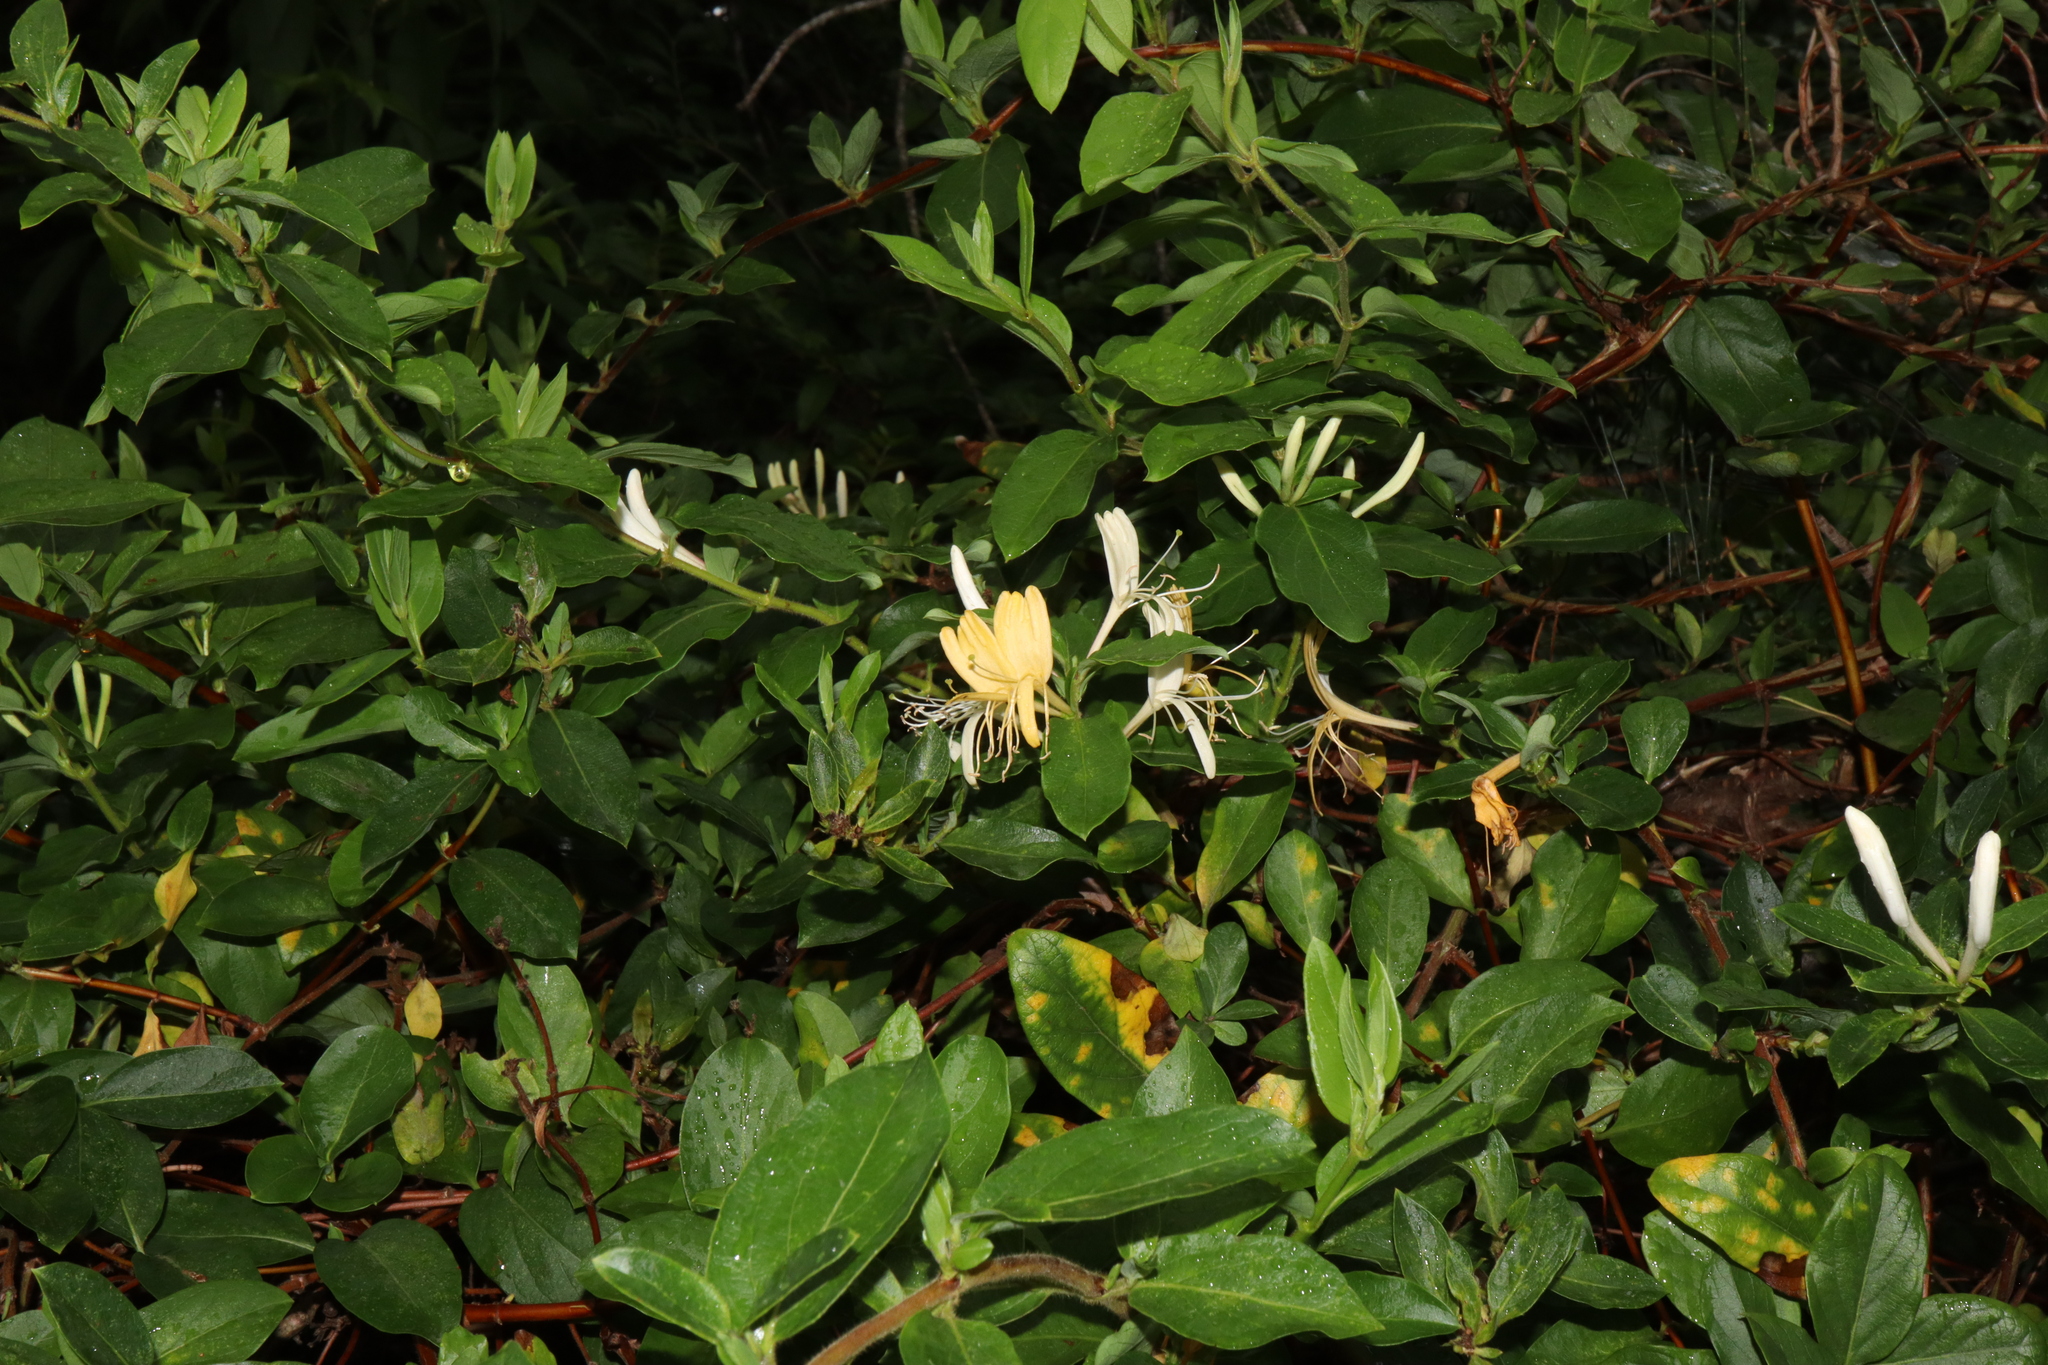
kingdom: Plantae
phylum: Tracheophyta
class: Magnoliopsida
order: Dipsacales
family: Caprifoliaceae
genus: Lonicera
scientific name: Lonicera japonica
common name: Japanese honeysuckle
